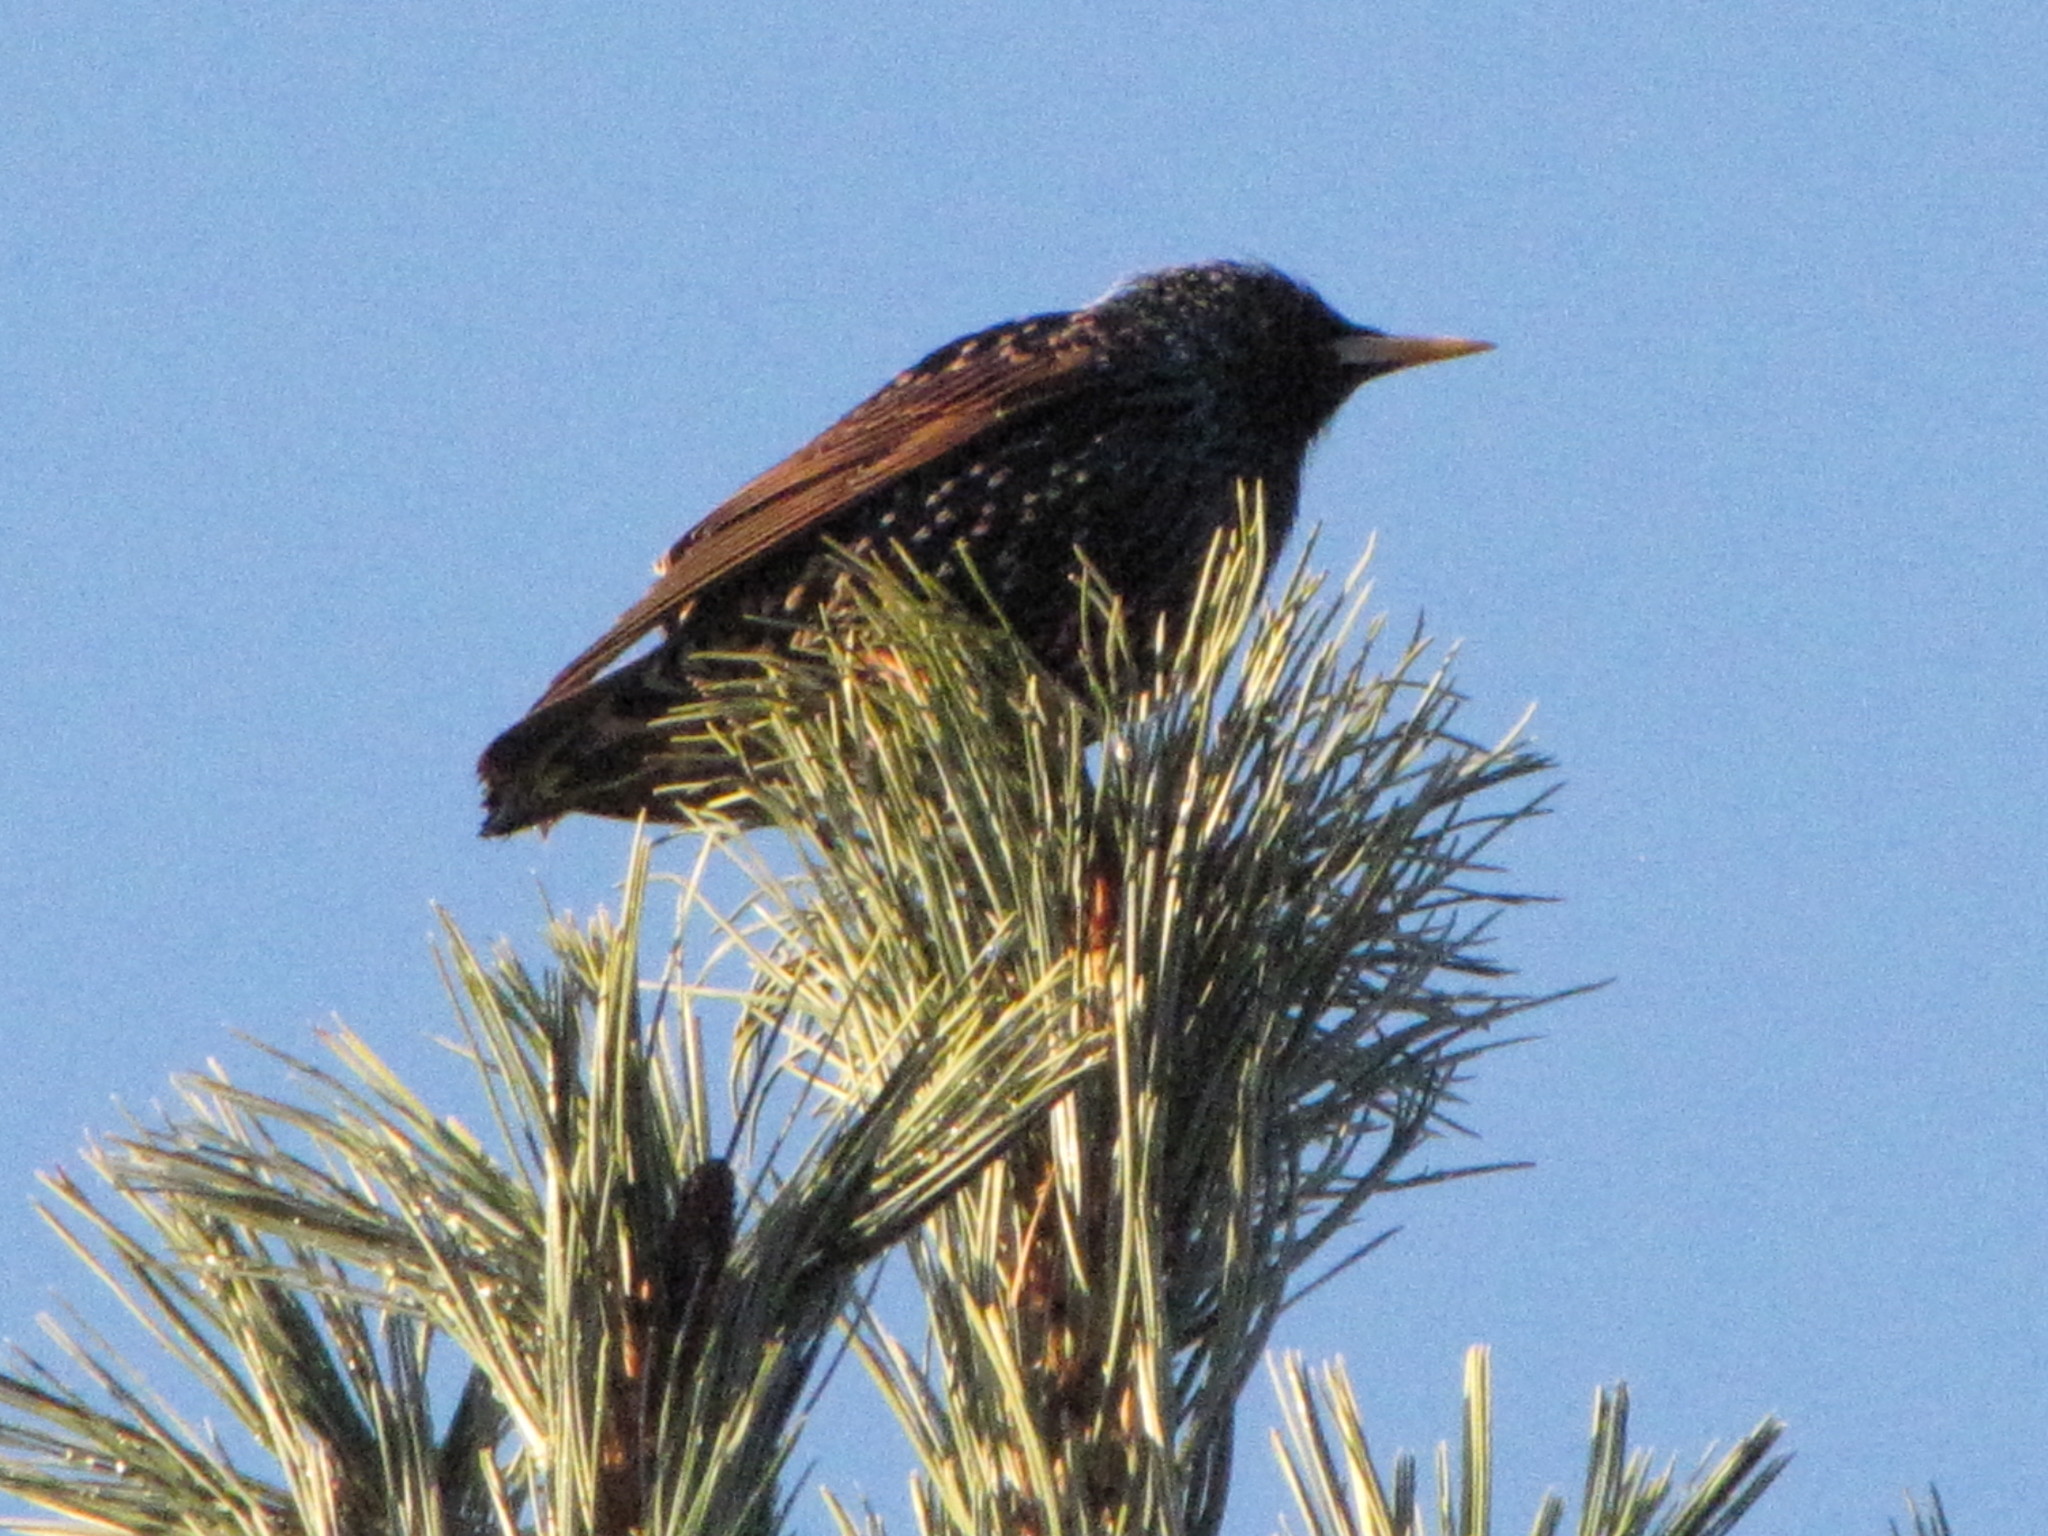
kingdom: Animalia
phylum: Chordata
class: Aves
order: Passeriformes
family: Sturnidae
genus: Sturnus
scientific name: Sturnus vulgaris
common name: Common starling
